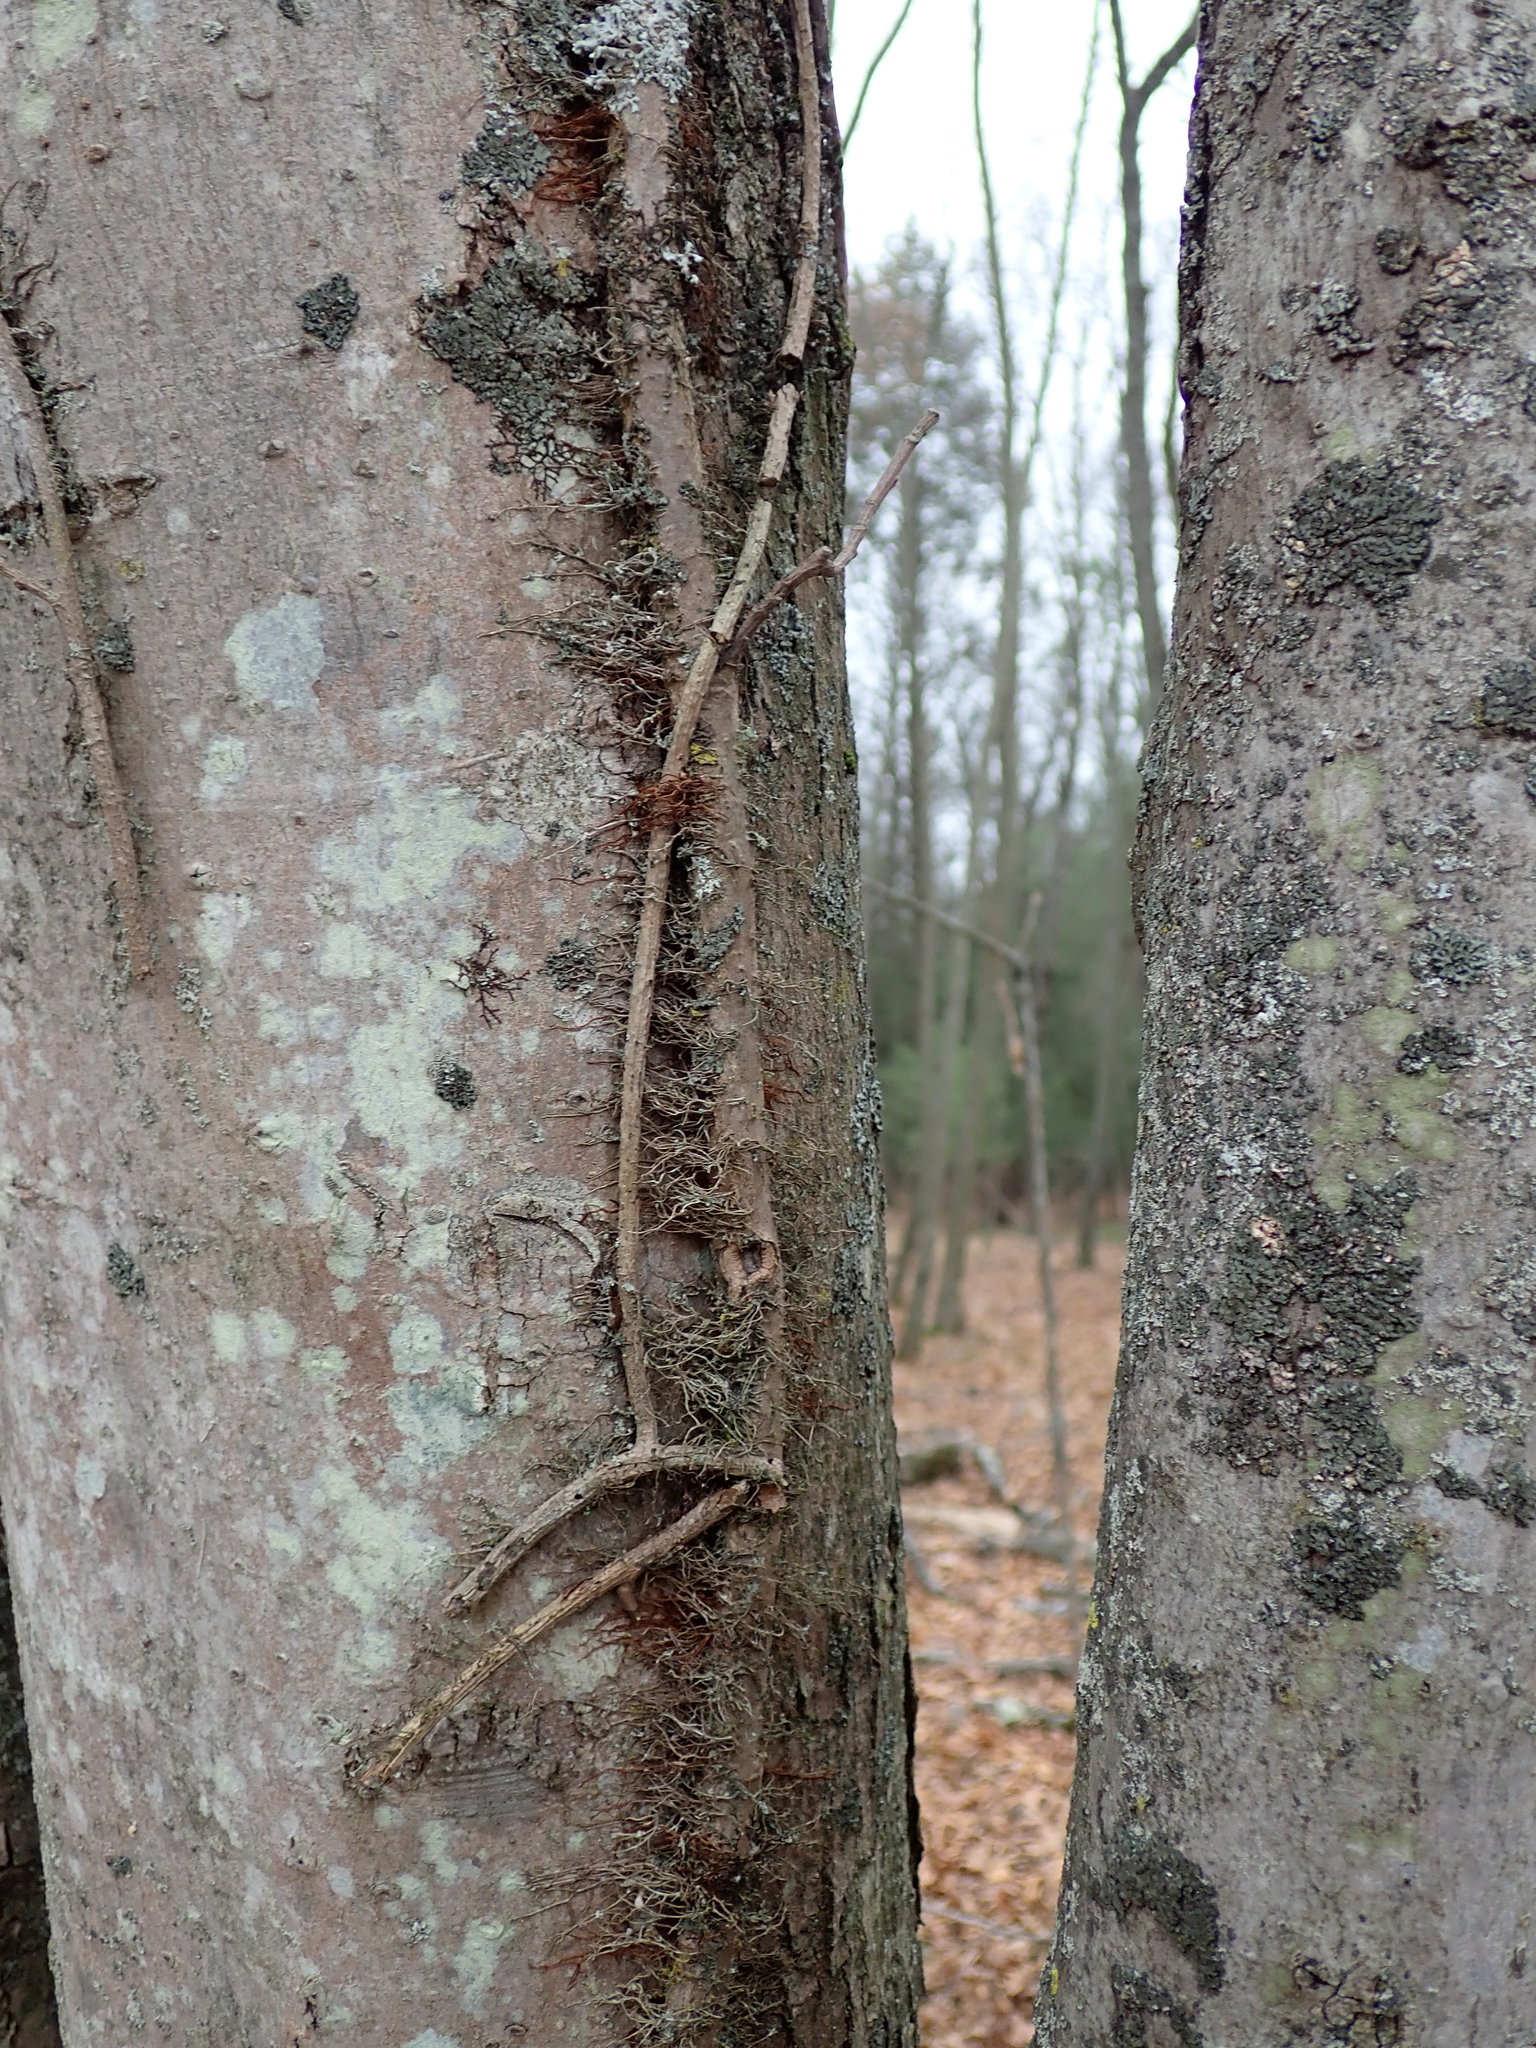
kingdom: Plantae
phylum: Tracheophyta
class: Magnoliopsida
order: Sapindales
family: Anacardiaceae
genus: Toxicodendron
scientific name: Toxicodendron radicans
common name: Poison ivy
